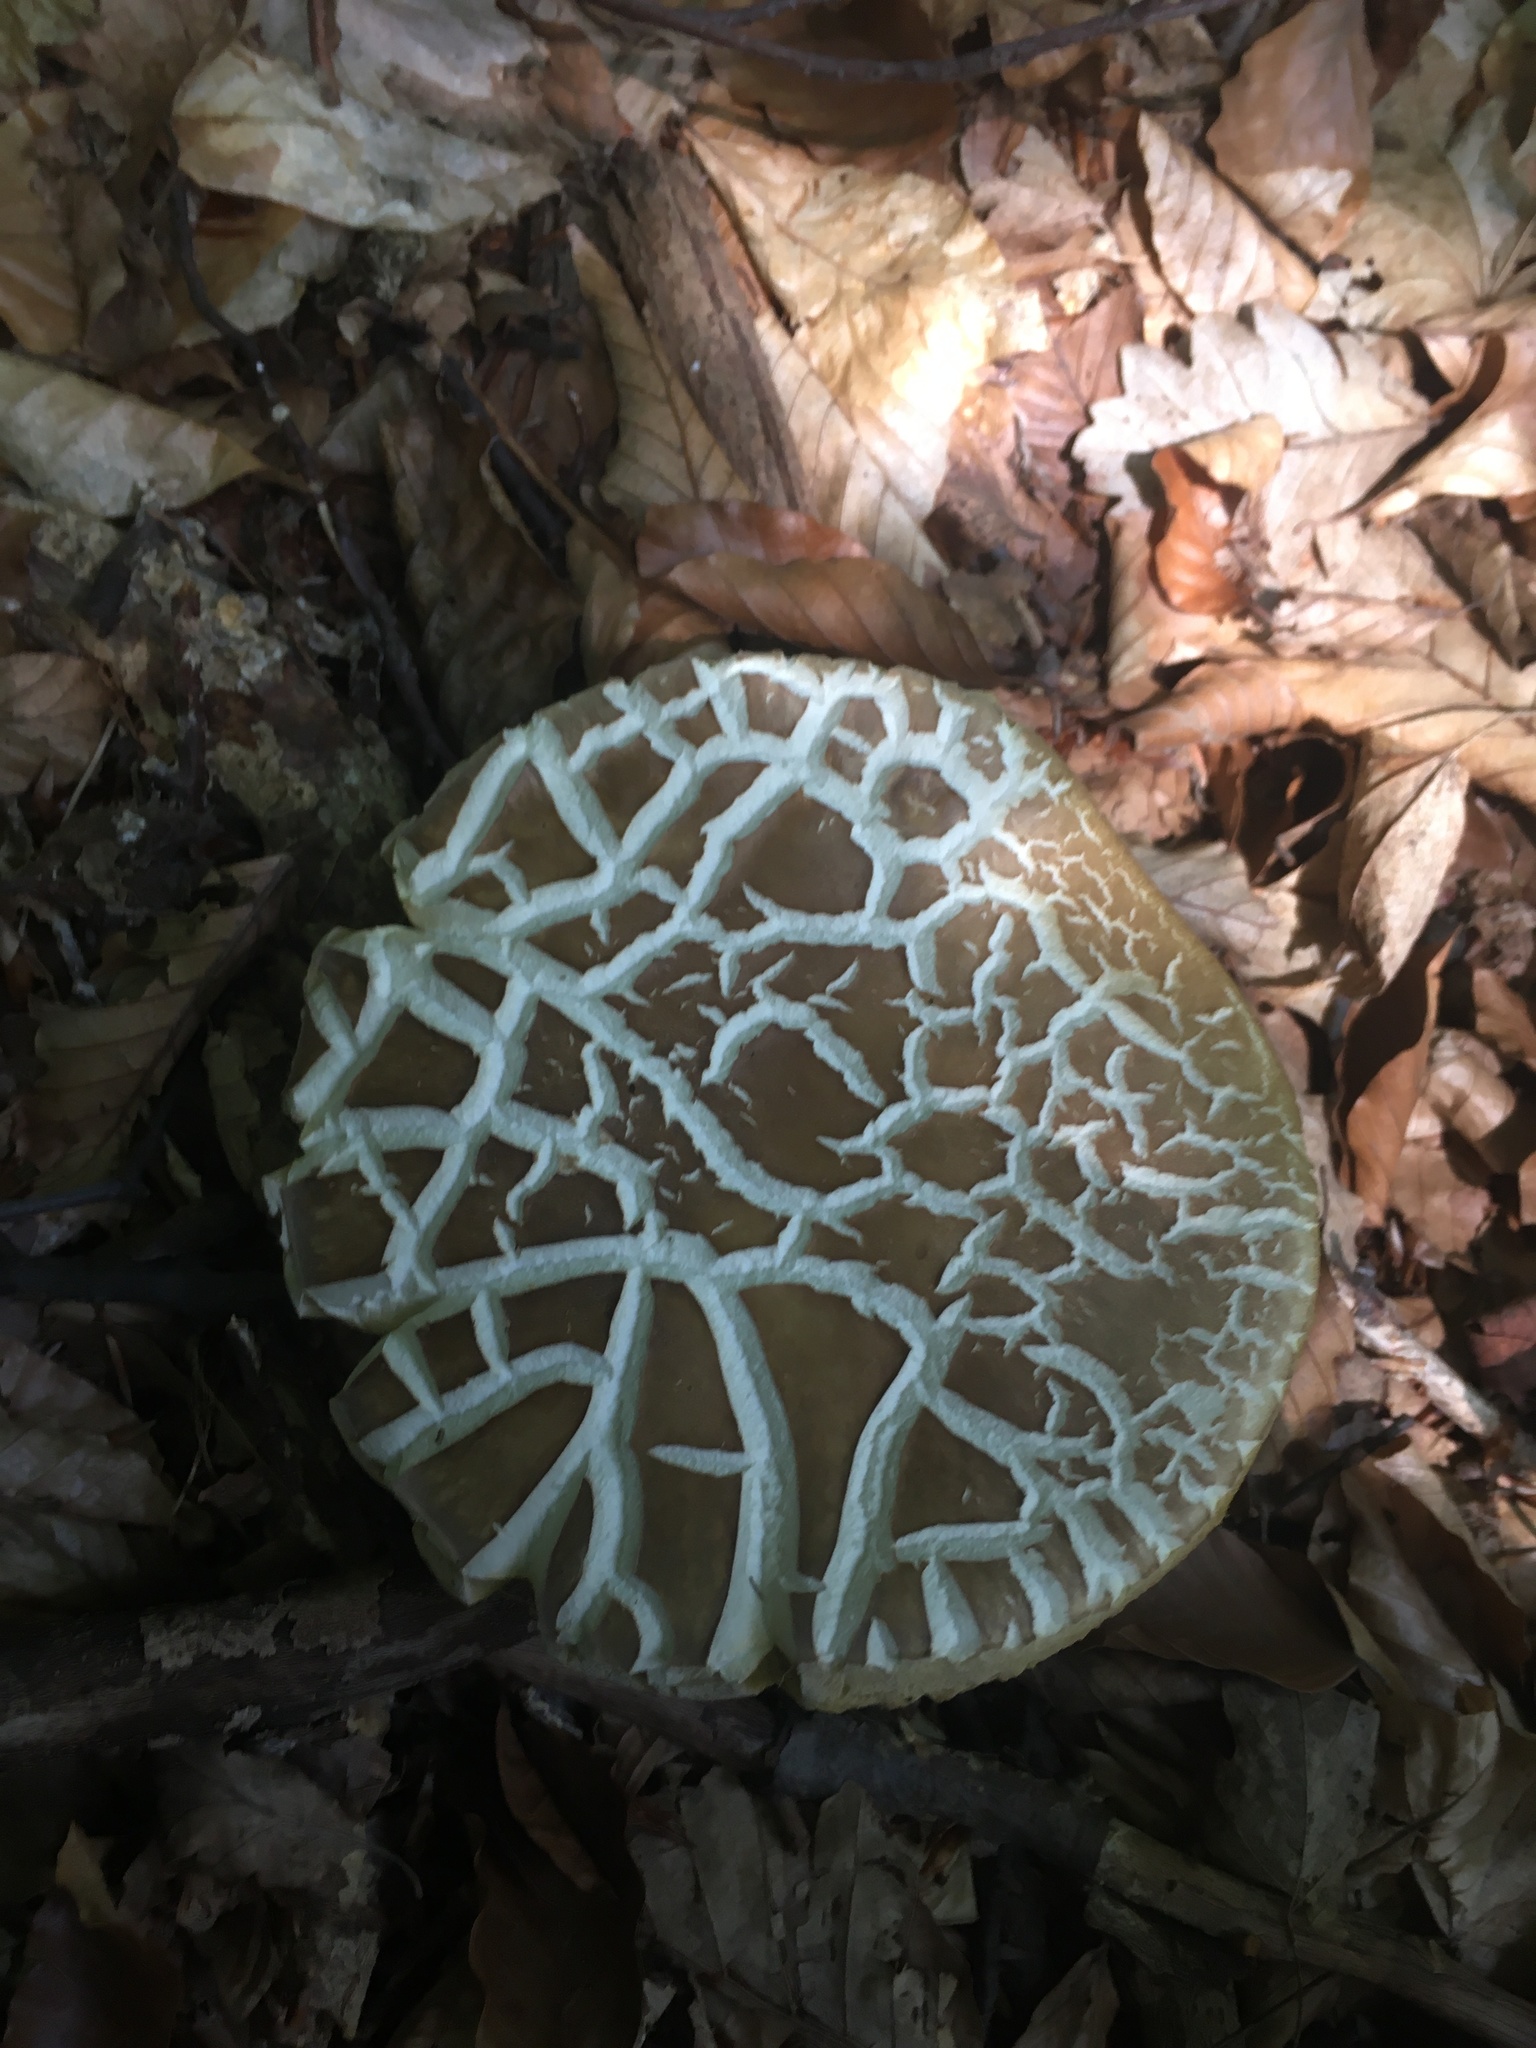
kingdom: Fungi
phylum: Basidiomycota
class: Agaricomycetes
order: Boletales
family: Boletaceae
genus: Boletus
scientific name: Boletus reticulatus
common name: Summer bolete
